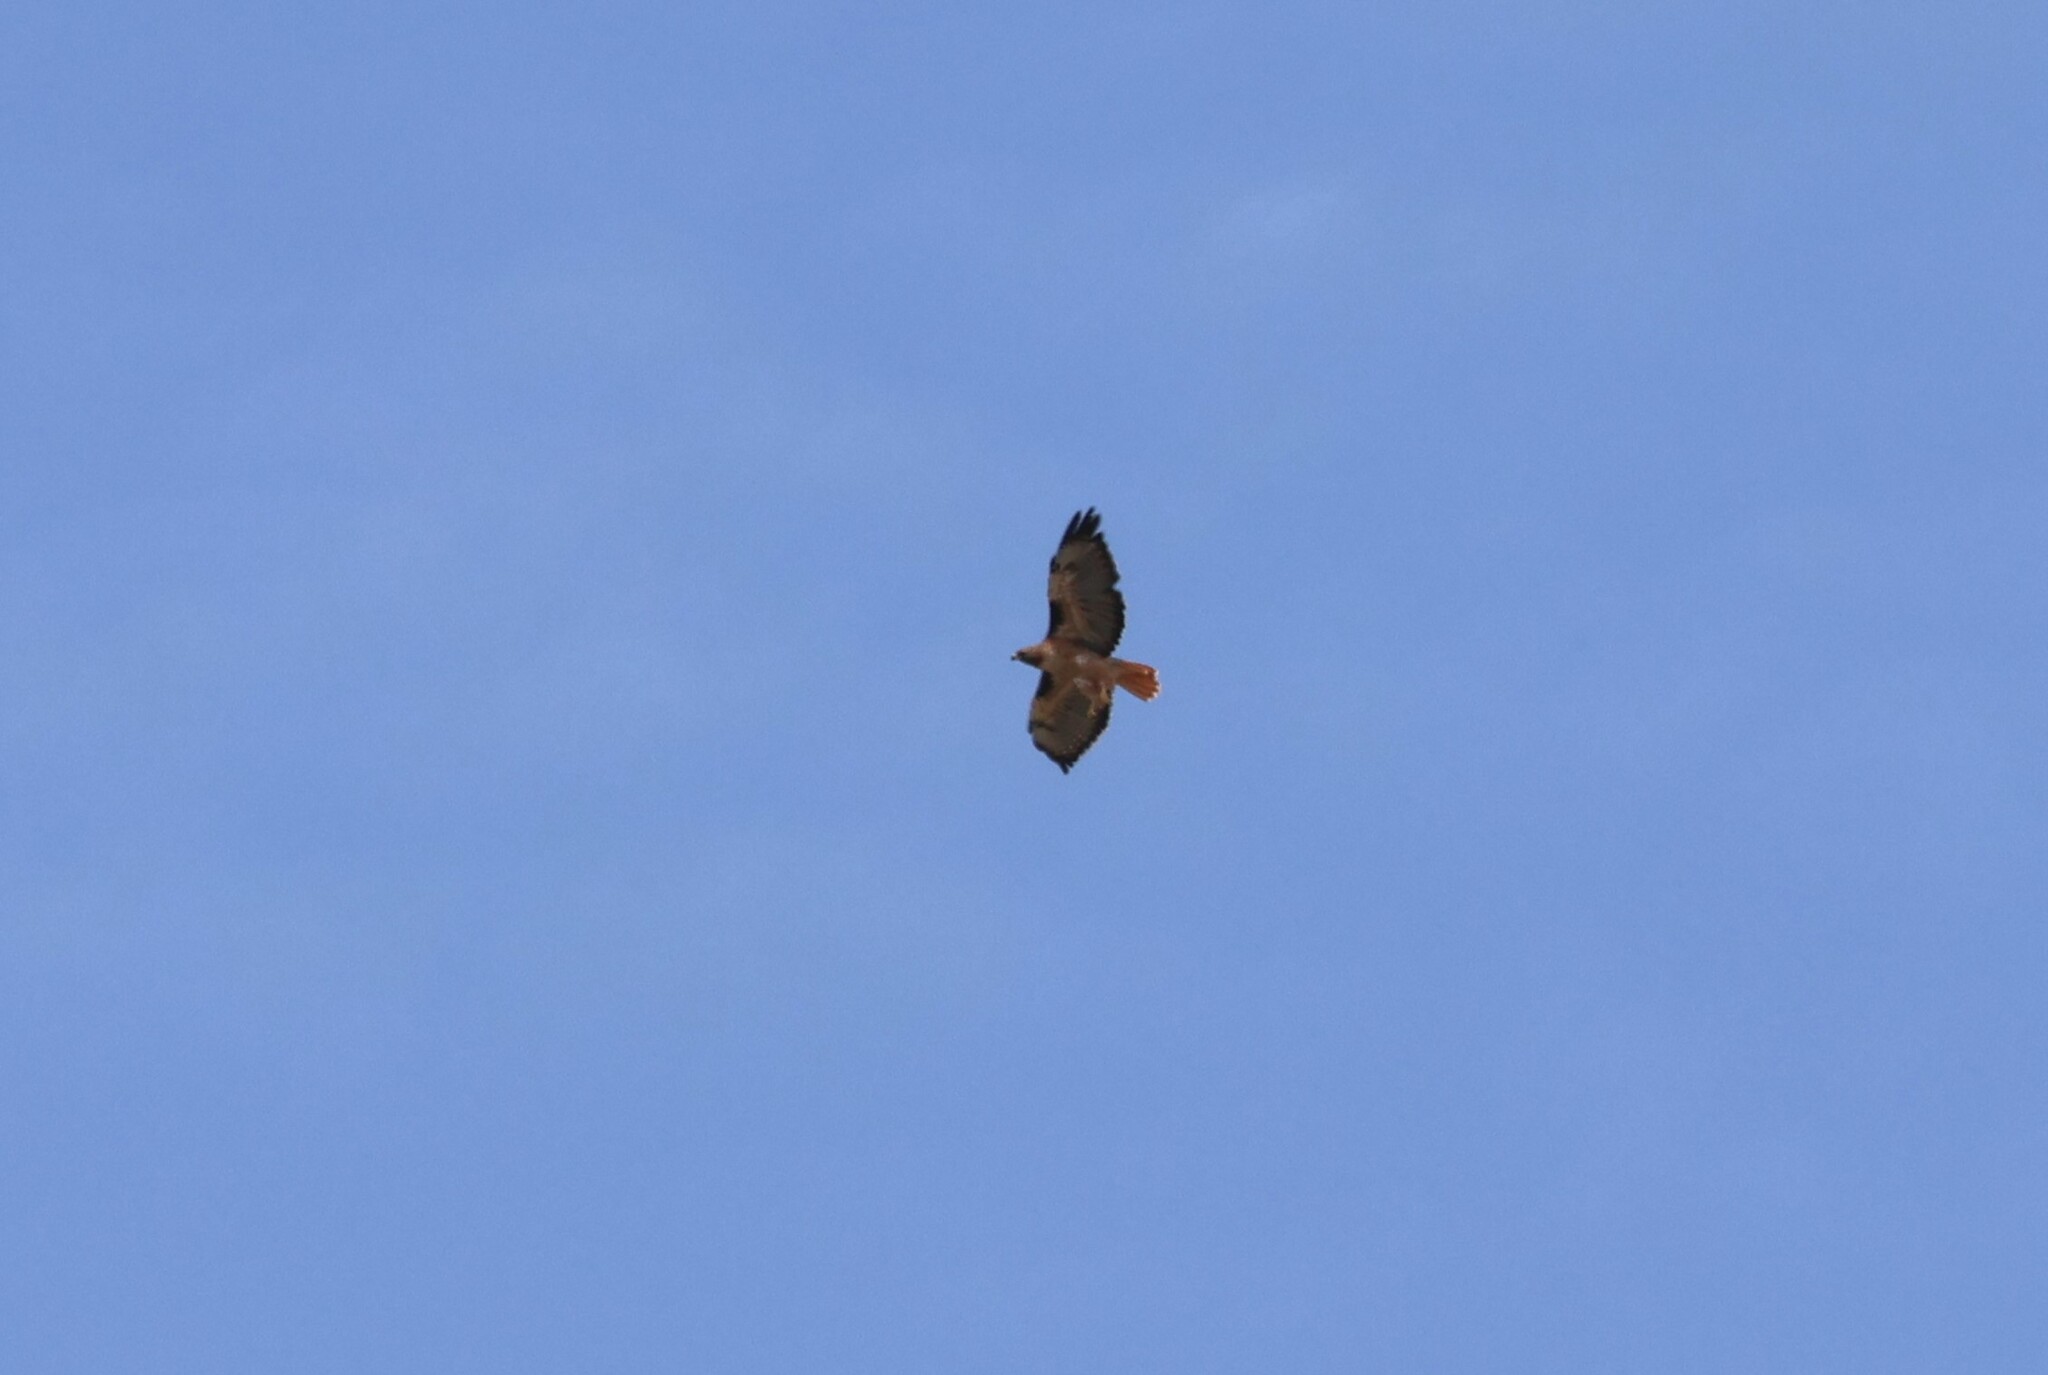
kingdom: Animalia
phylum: Chordata
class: Aves
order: Accipitriformes
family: Accipitridae
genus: Buteo
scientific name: Buteo jamaicensis
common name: Red-tailed hawk
